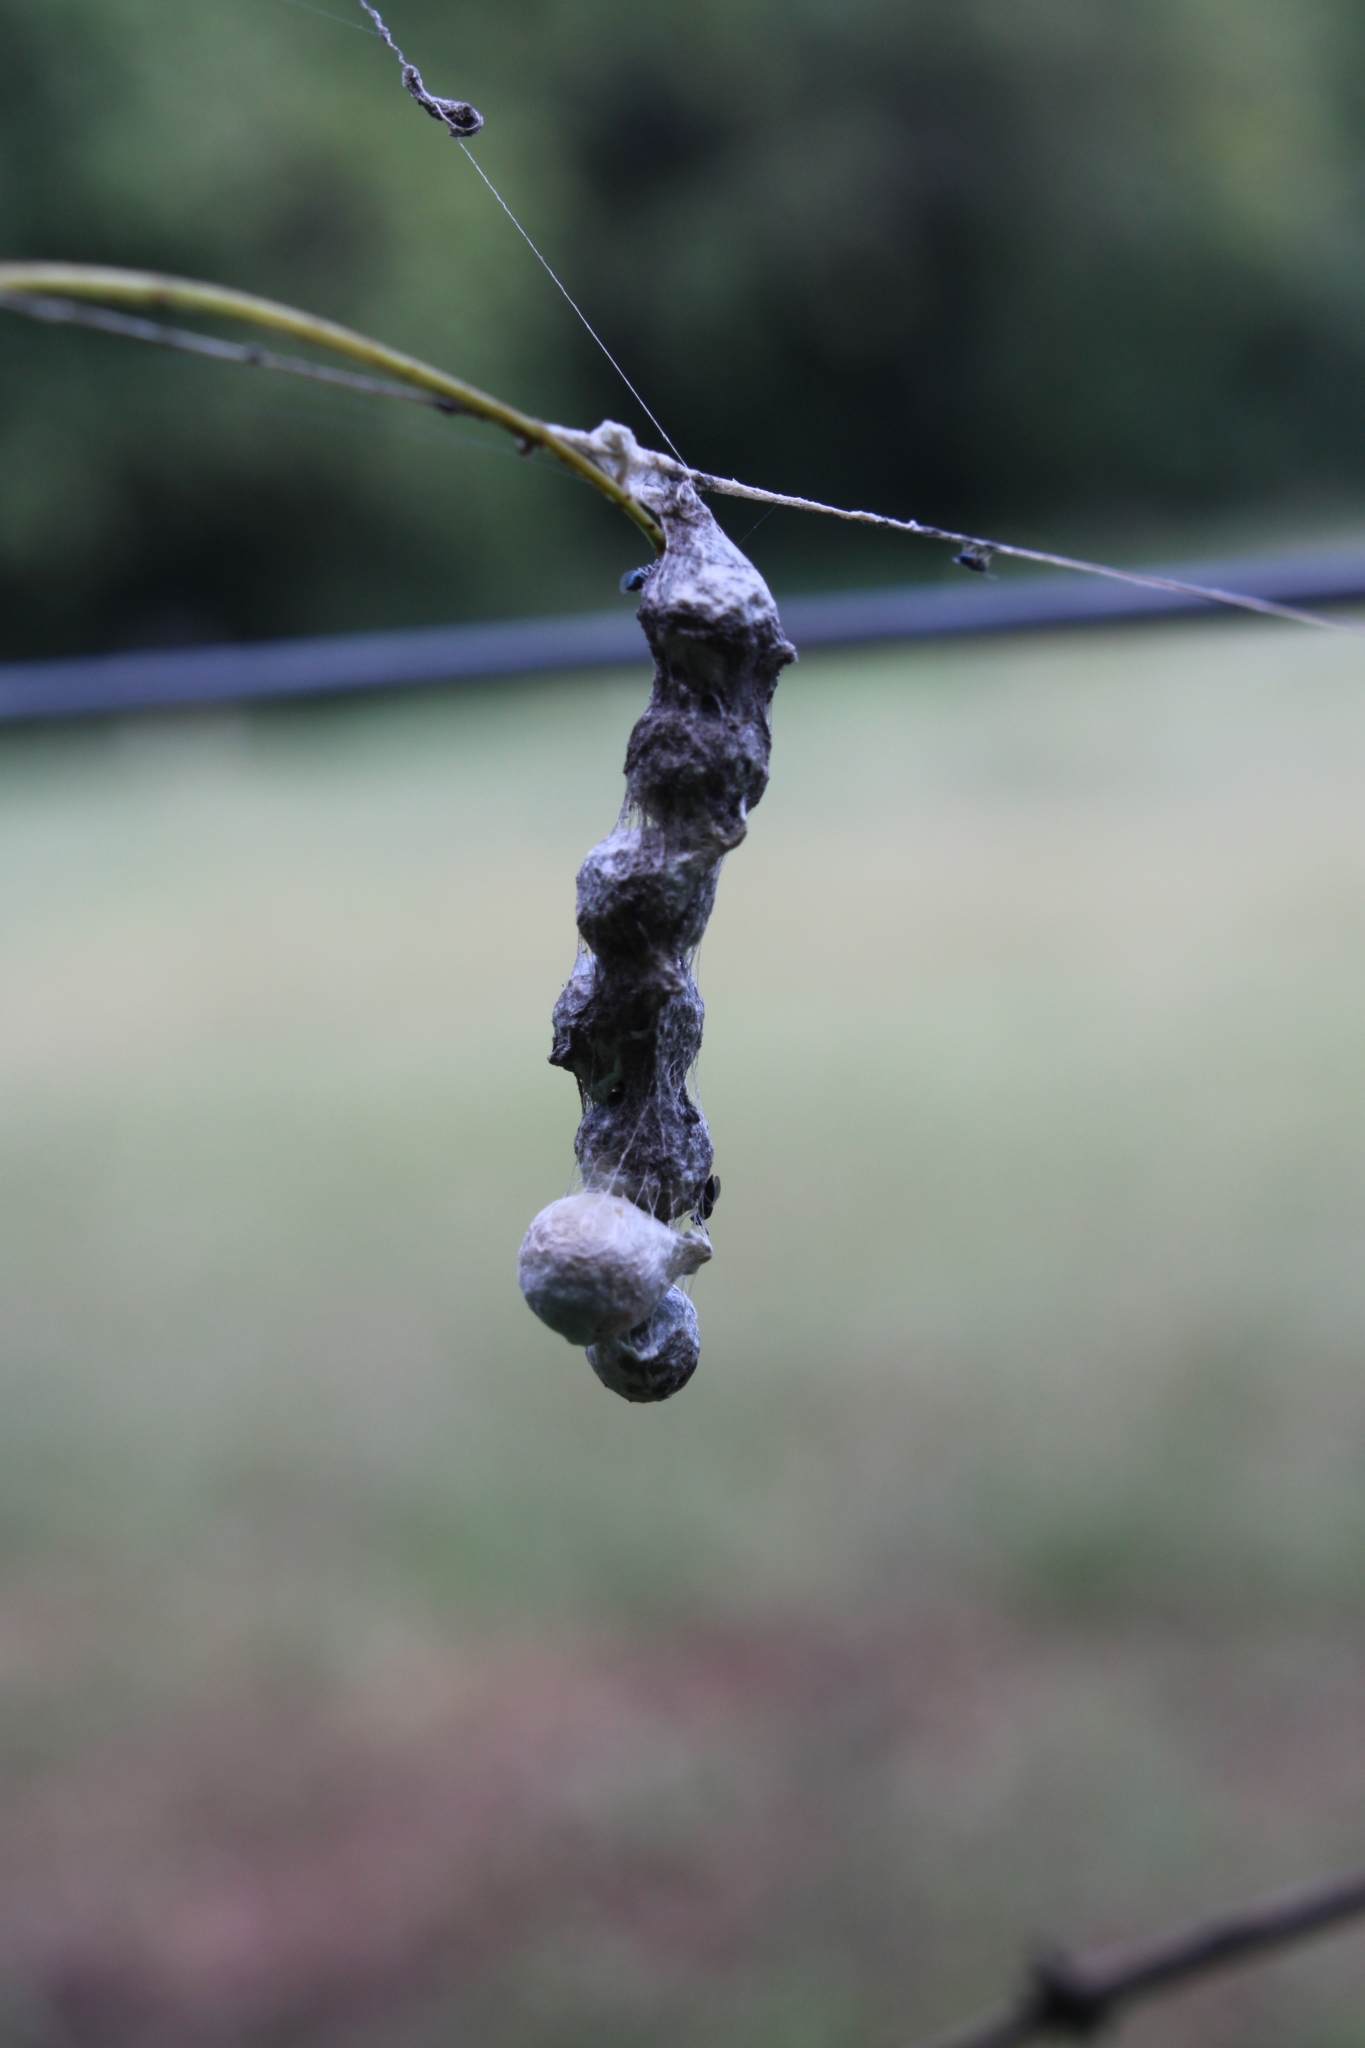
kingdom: Animalia
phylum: Arthropoda
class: Arachnida
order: Araneae
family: Araneidae
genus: Mecynogea
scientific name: Mecynogea lemniscata
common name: Orb weavers
